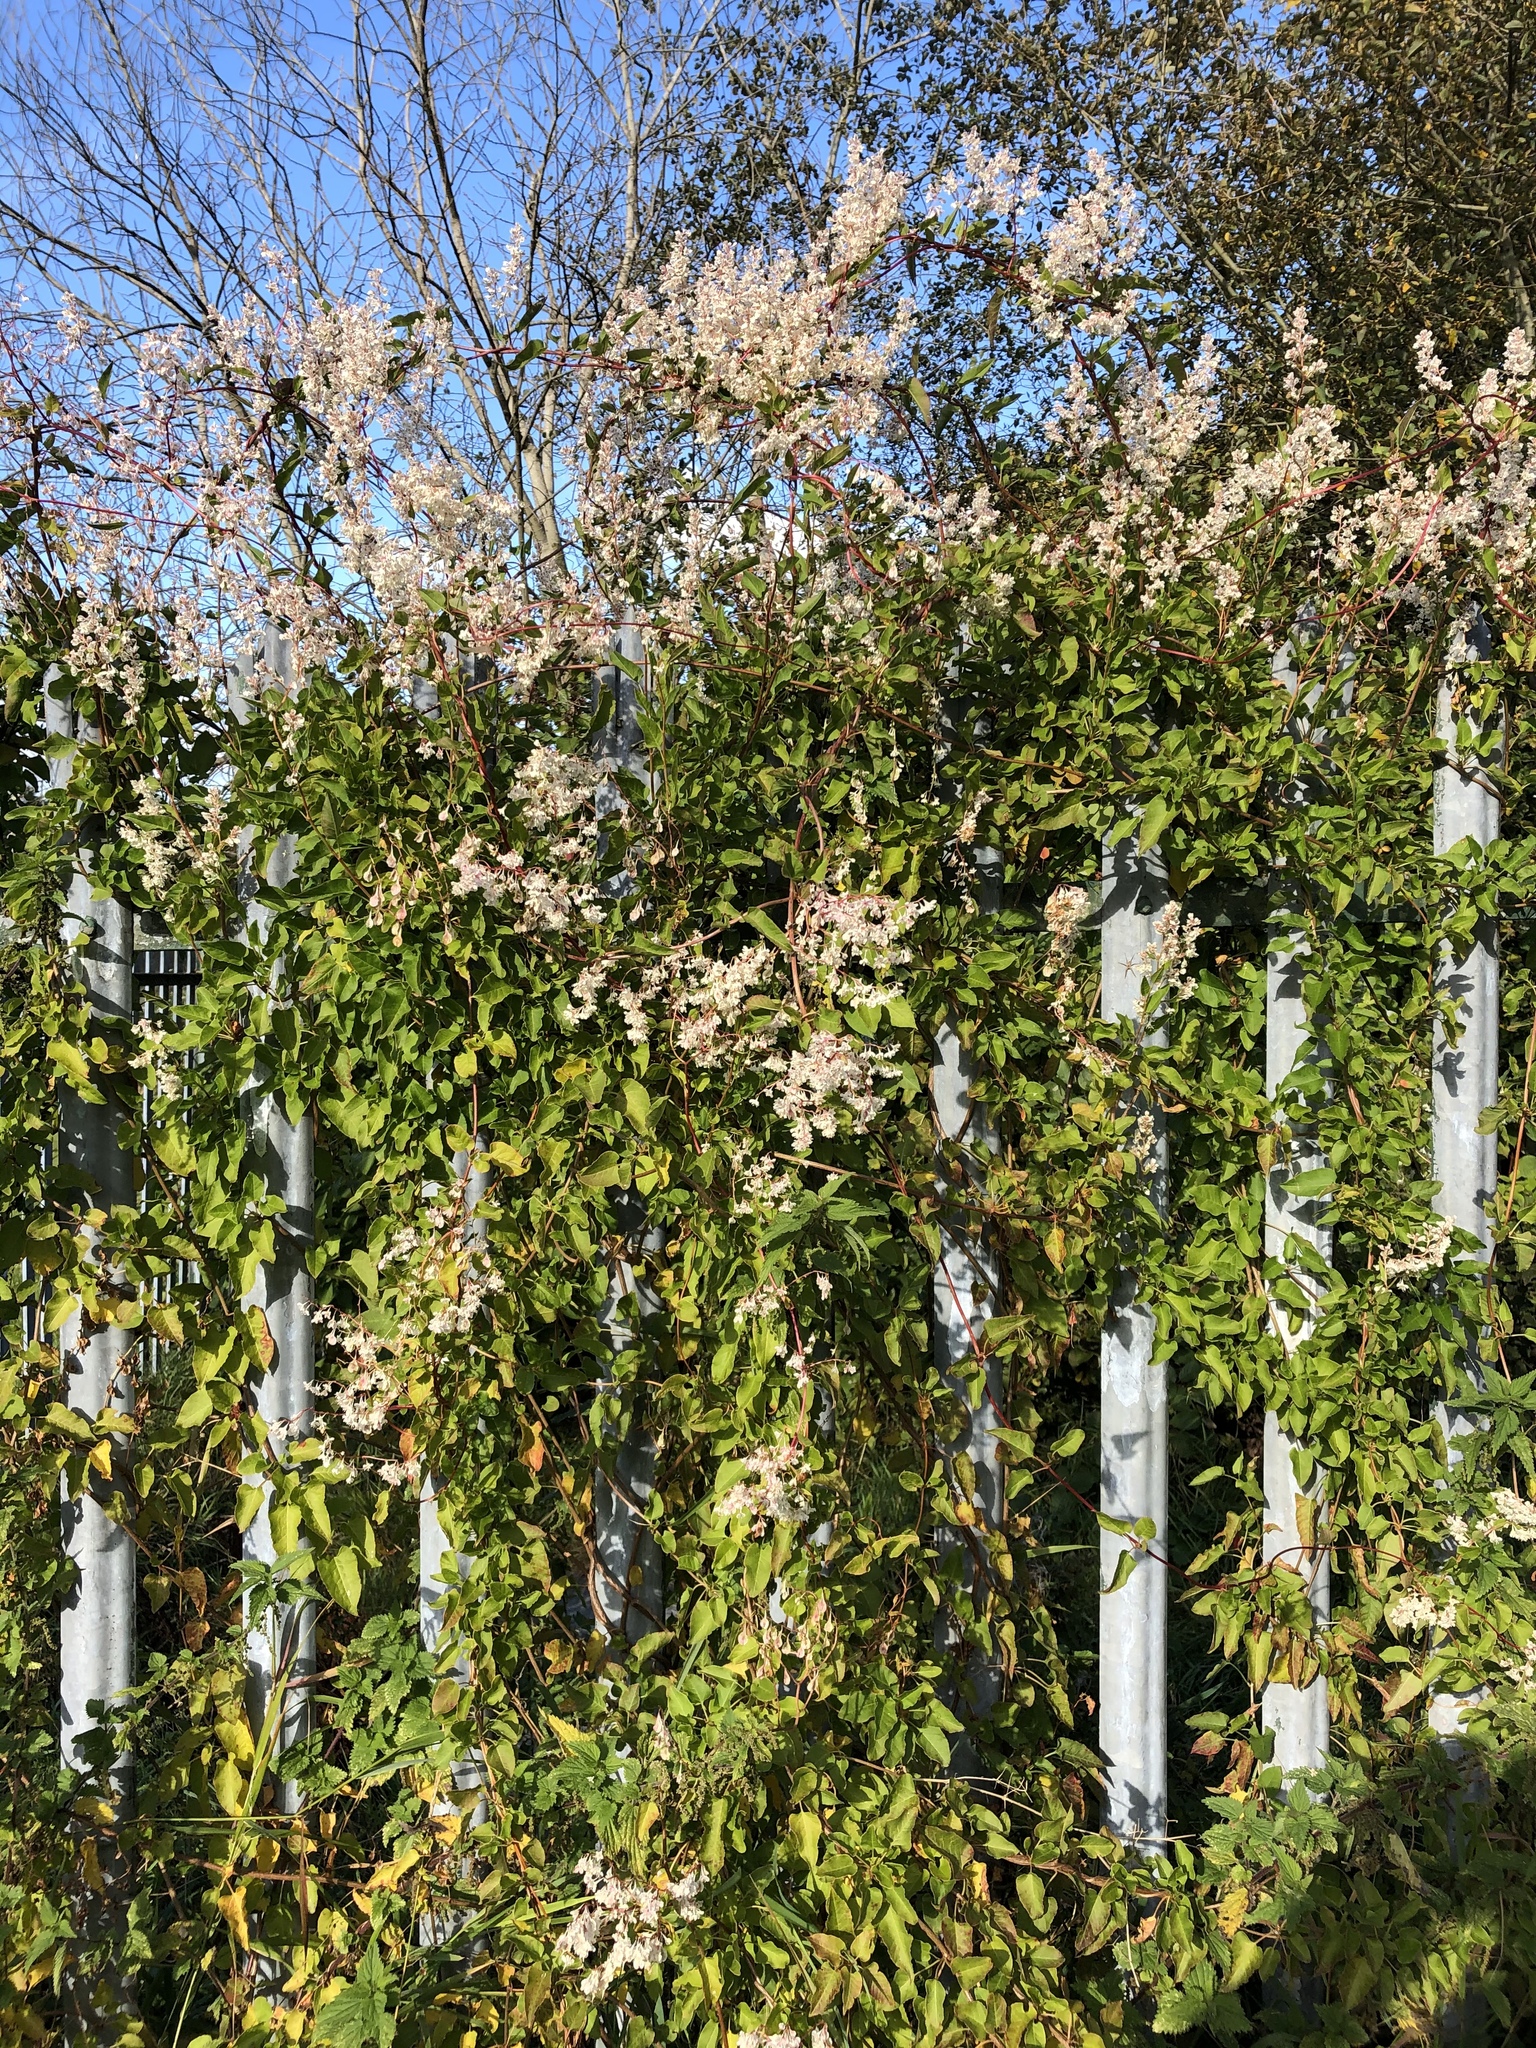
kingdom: Plantae
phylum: Tracheophyta
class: Magnoliopsida
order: Caryophyllales
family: Polygonaceae
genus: Fallopia
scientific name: Fallopia baldschuanica
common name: Russian-vine
